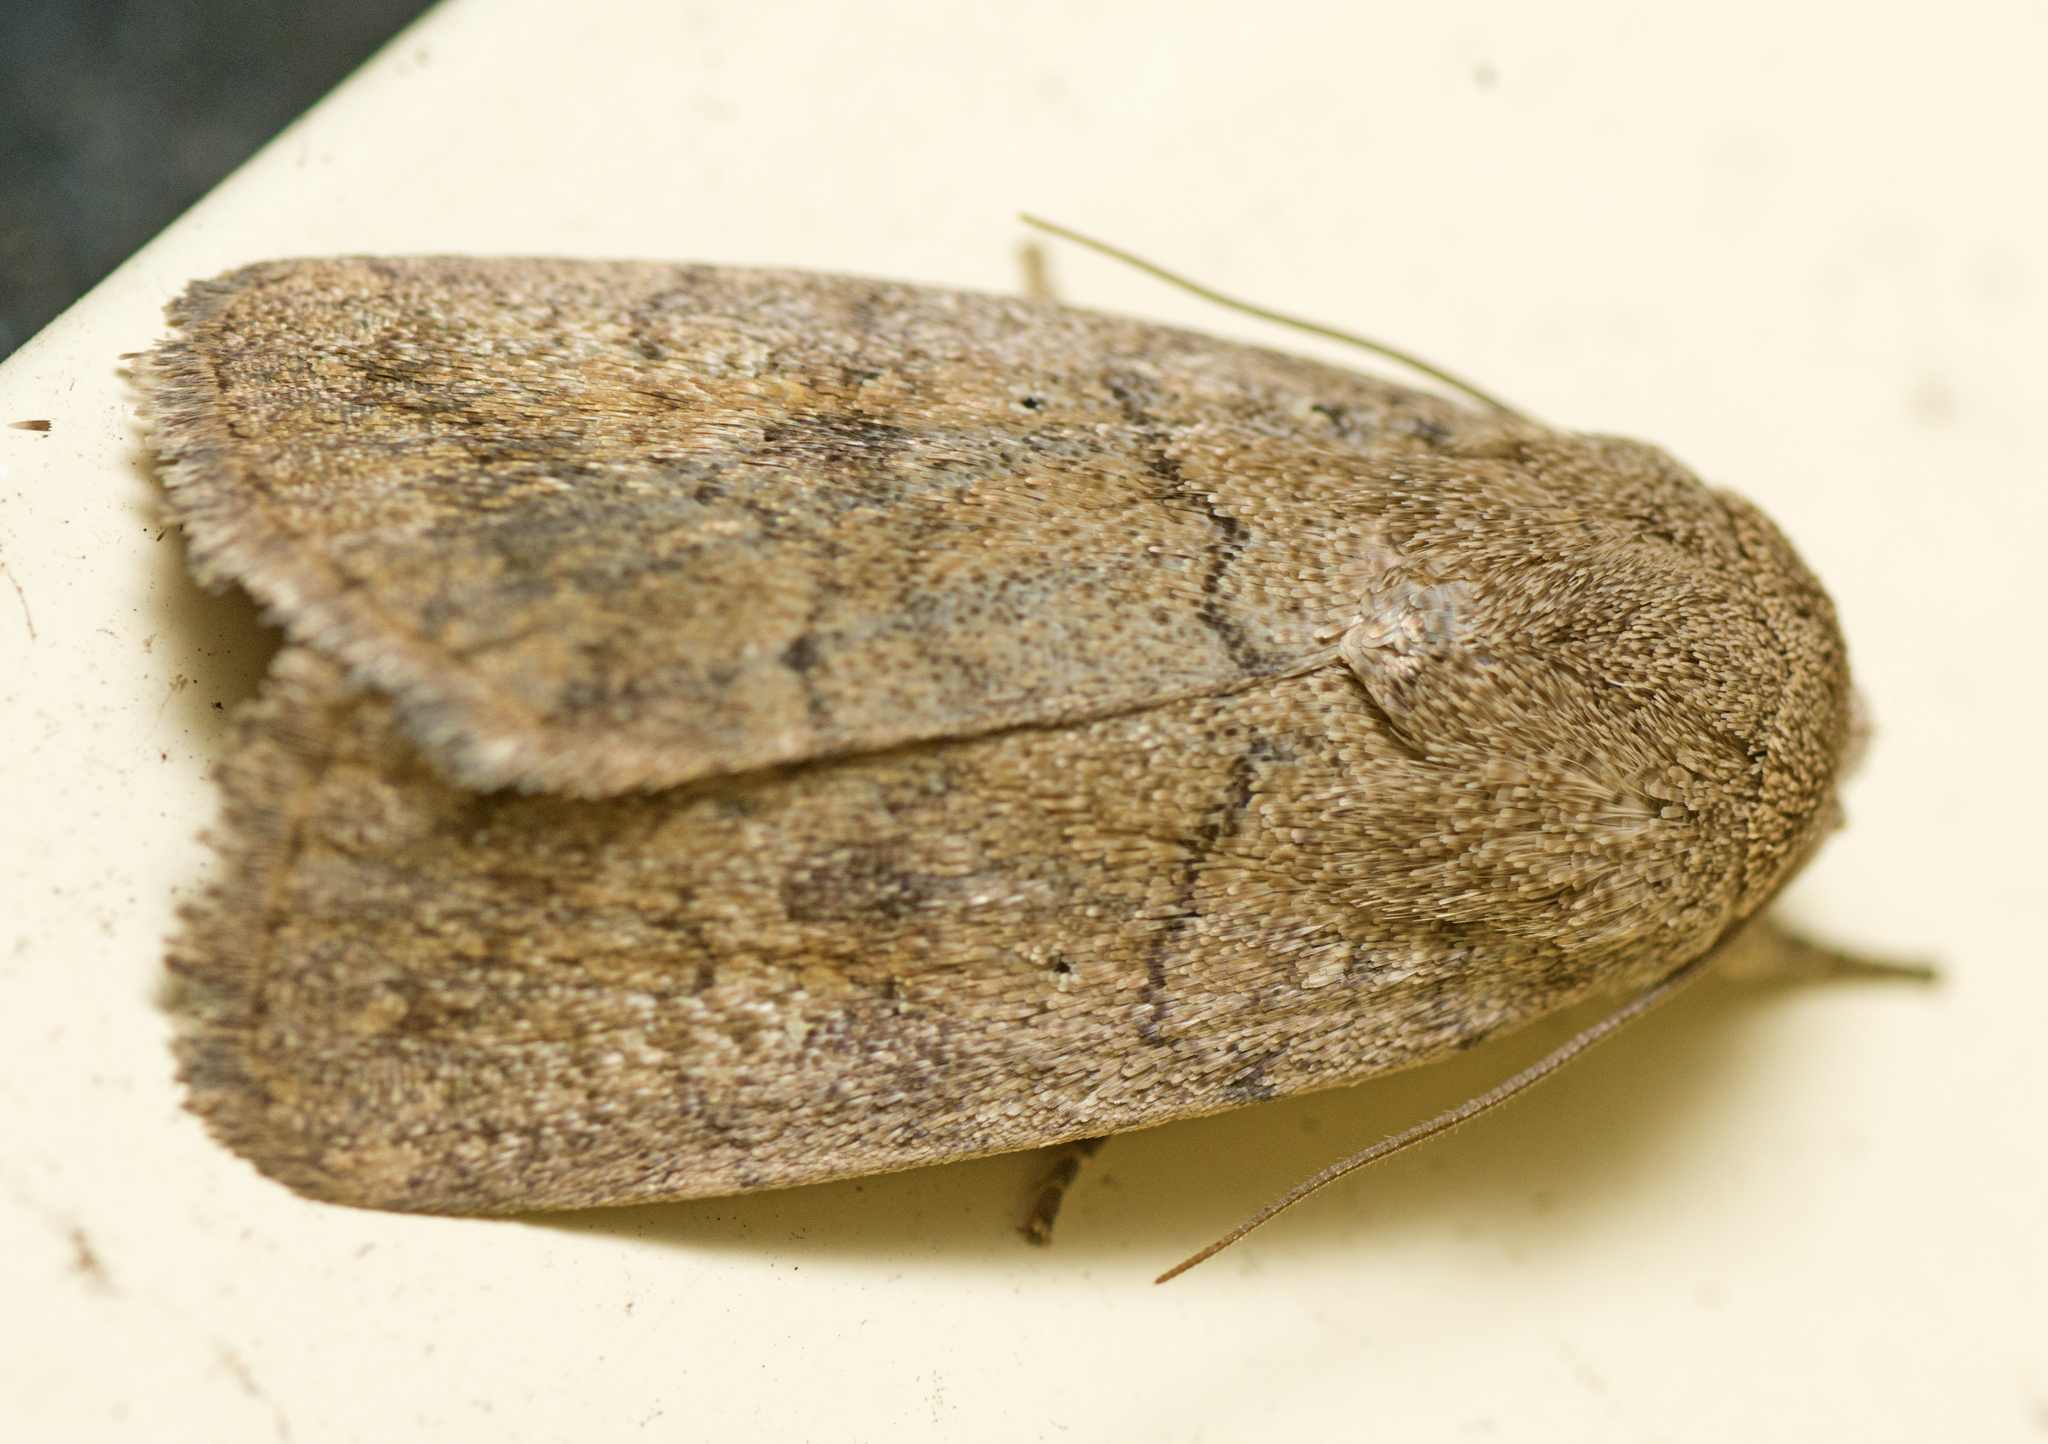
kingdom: Animalia
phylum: Arthropoda
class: Insecta
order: Lepidoptera
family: Noctuidae
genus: Athetis
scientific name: Athetis reclusa
